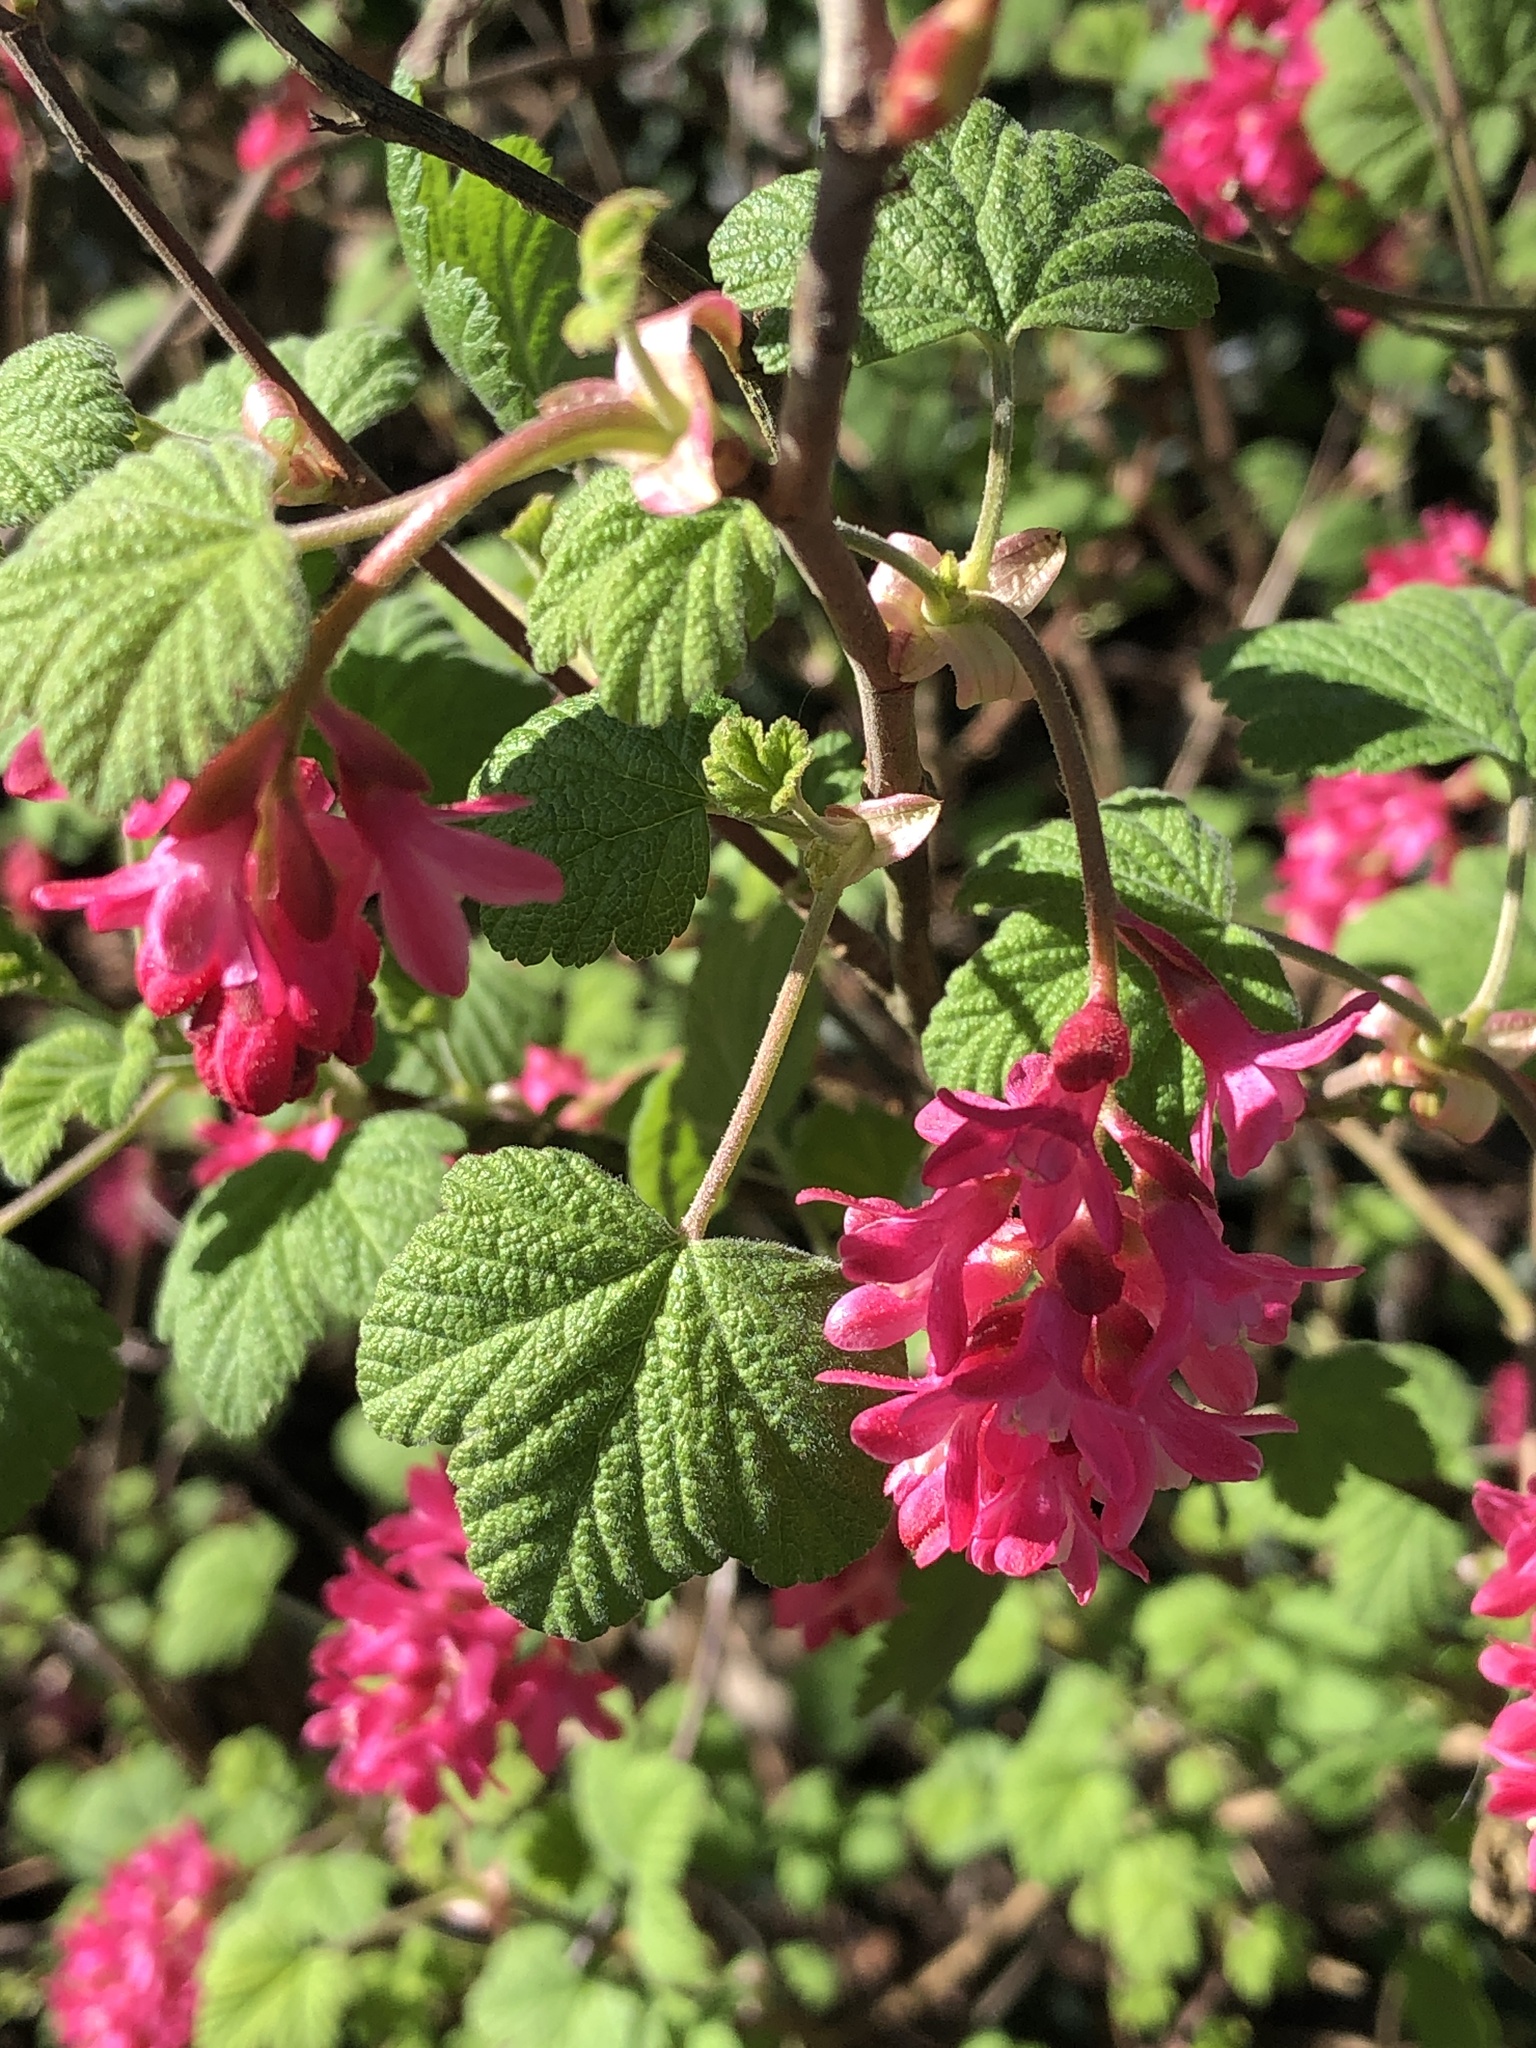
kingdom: Plantae
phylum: Tracheophyta
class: Magnoliopsida
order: Saxifragales
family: Grossulariaceae
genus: Ribes
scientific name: Ribes sanguineum
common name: Flowering currant
